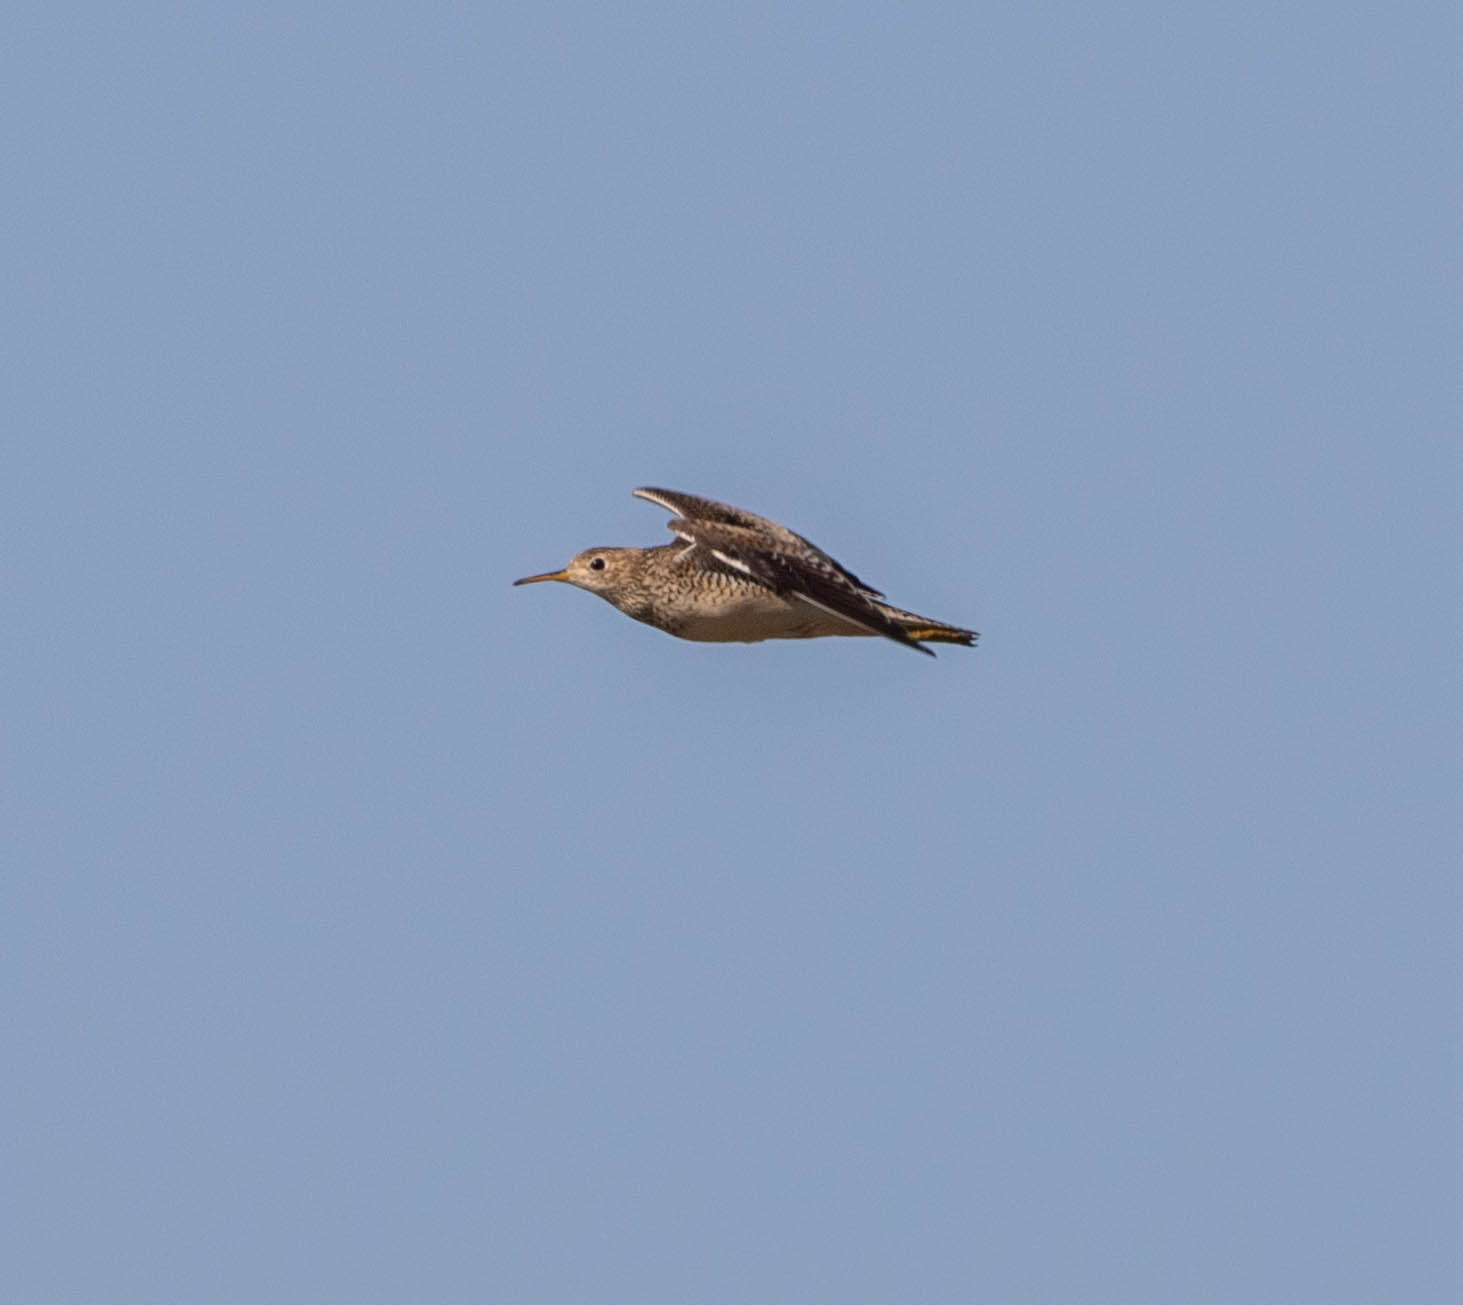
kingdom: Animalia
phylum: Chordata
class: Aves
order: Charadriiformes
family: Scolopacidae
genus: Bartramia
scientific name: Bartramia longicauda
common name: Upland sandpiper
